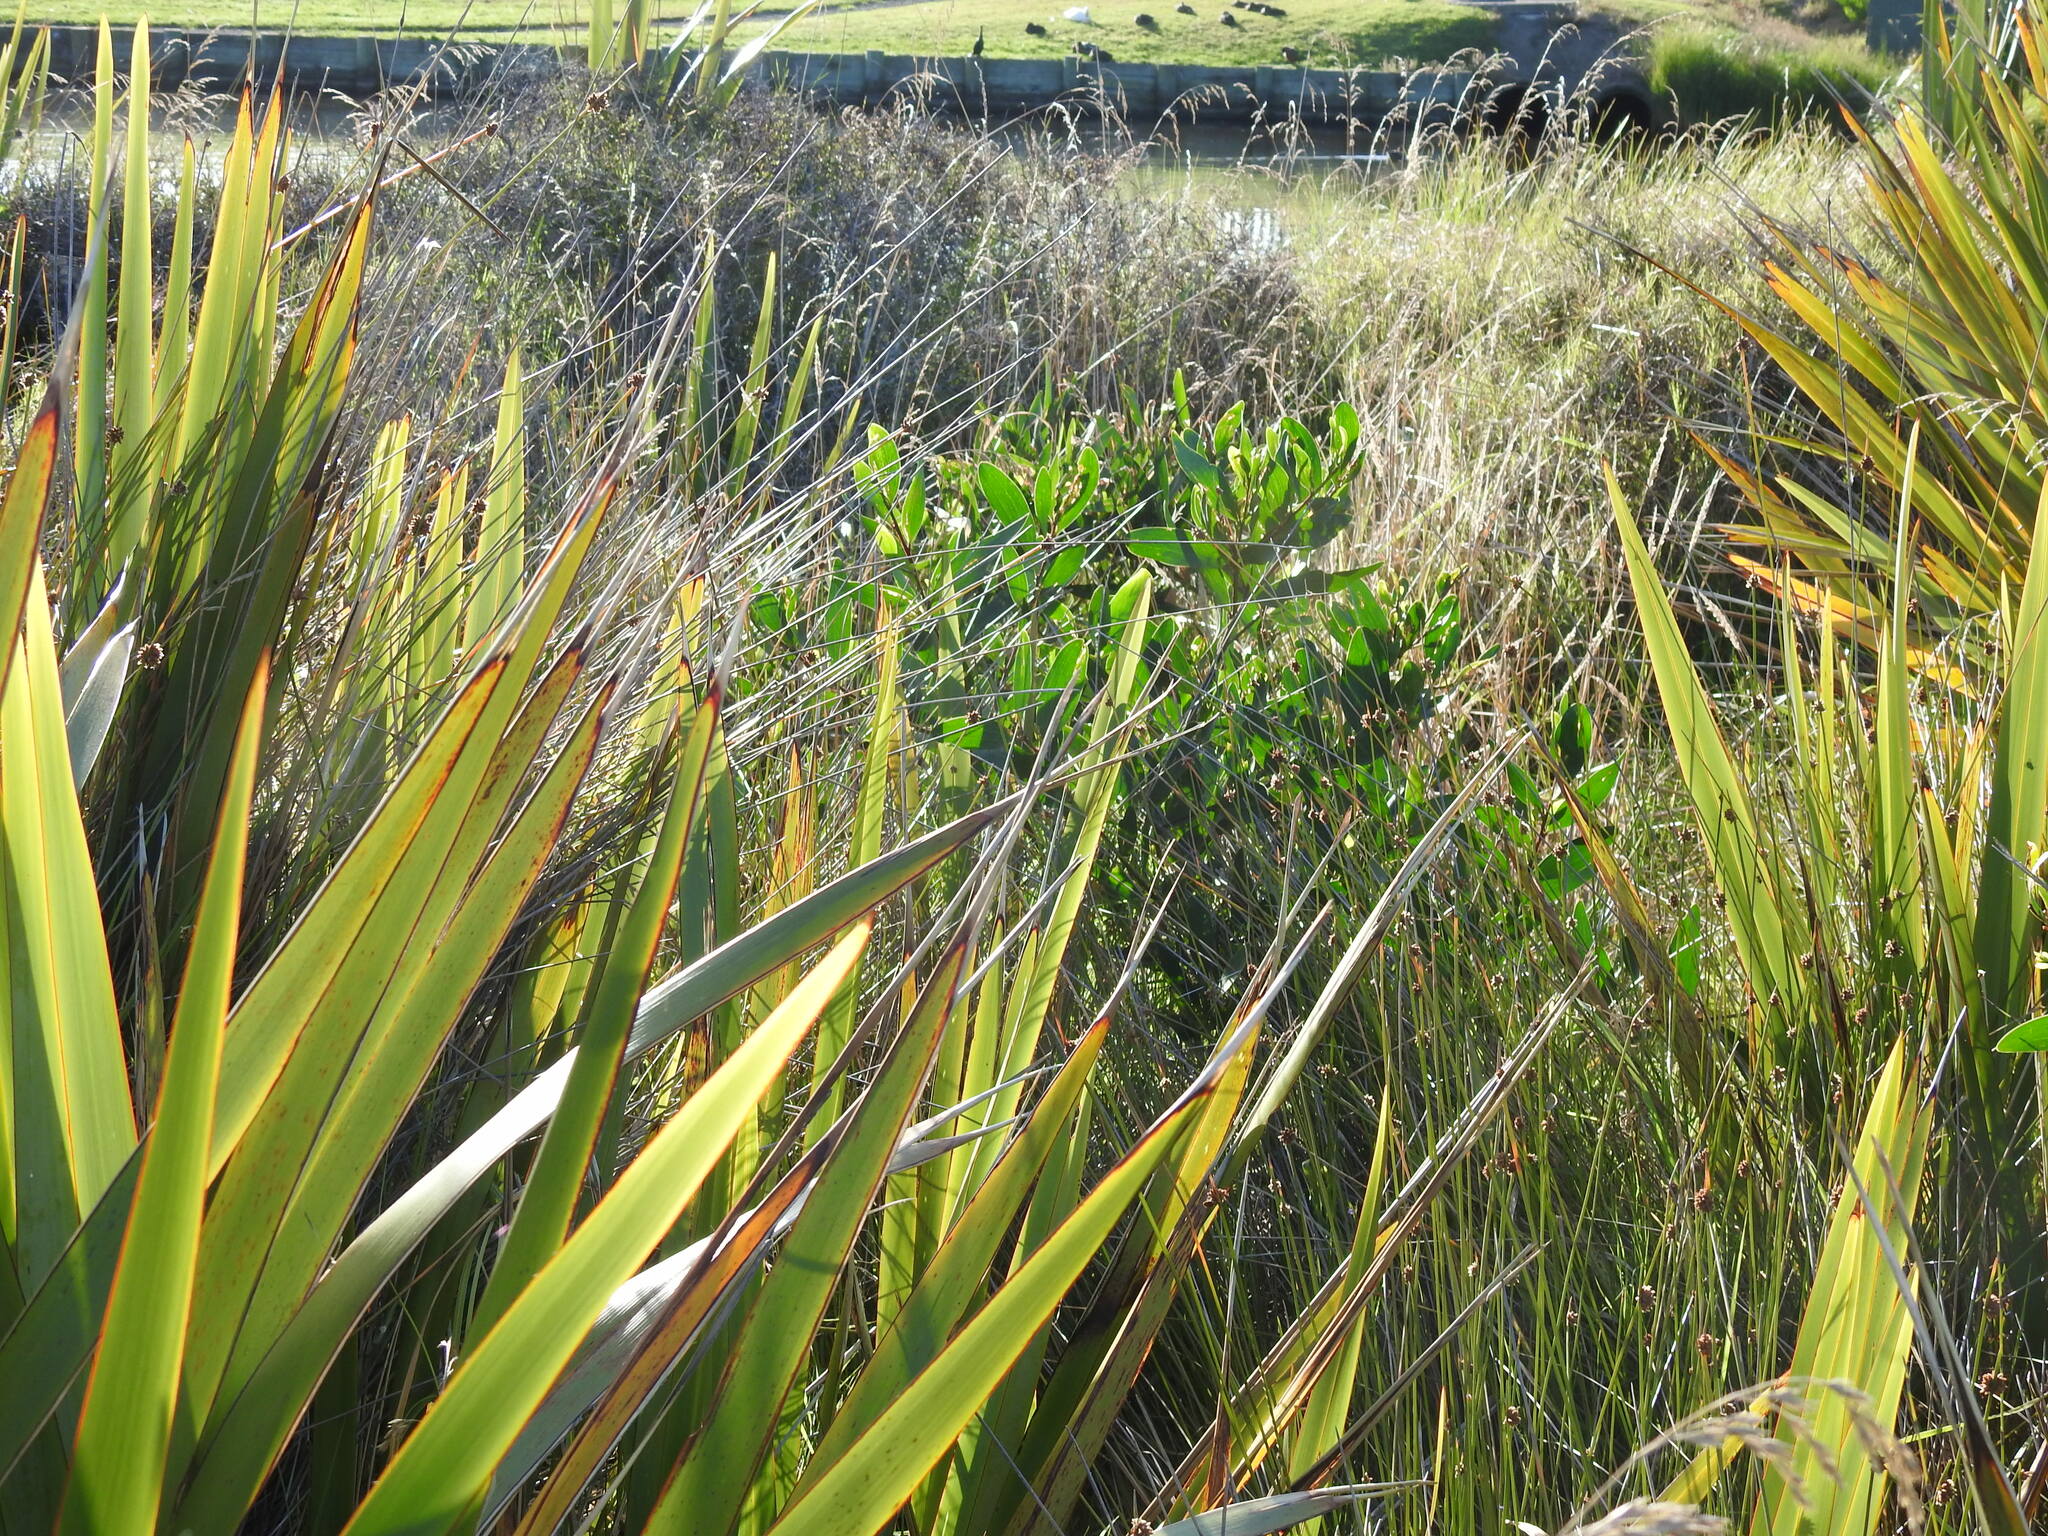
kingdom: Plantae
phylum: Tracheophyta
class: Magnoliopsida
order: Fabales
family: Fabaceae
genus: Acacia
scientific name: Acacia longifolia
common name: Sydney golden wattle
